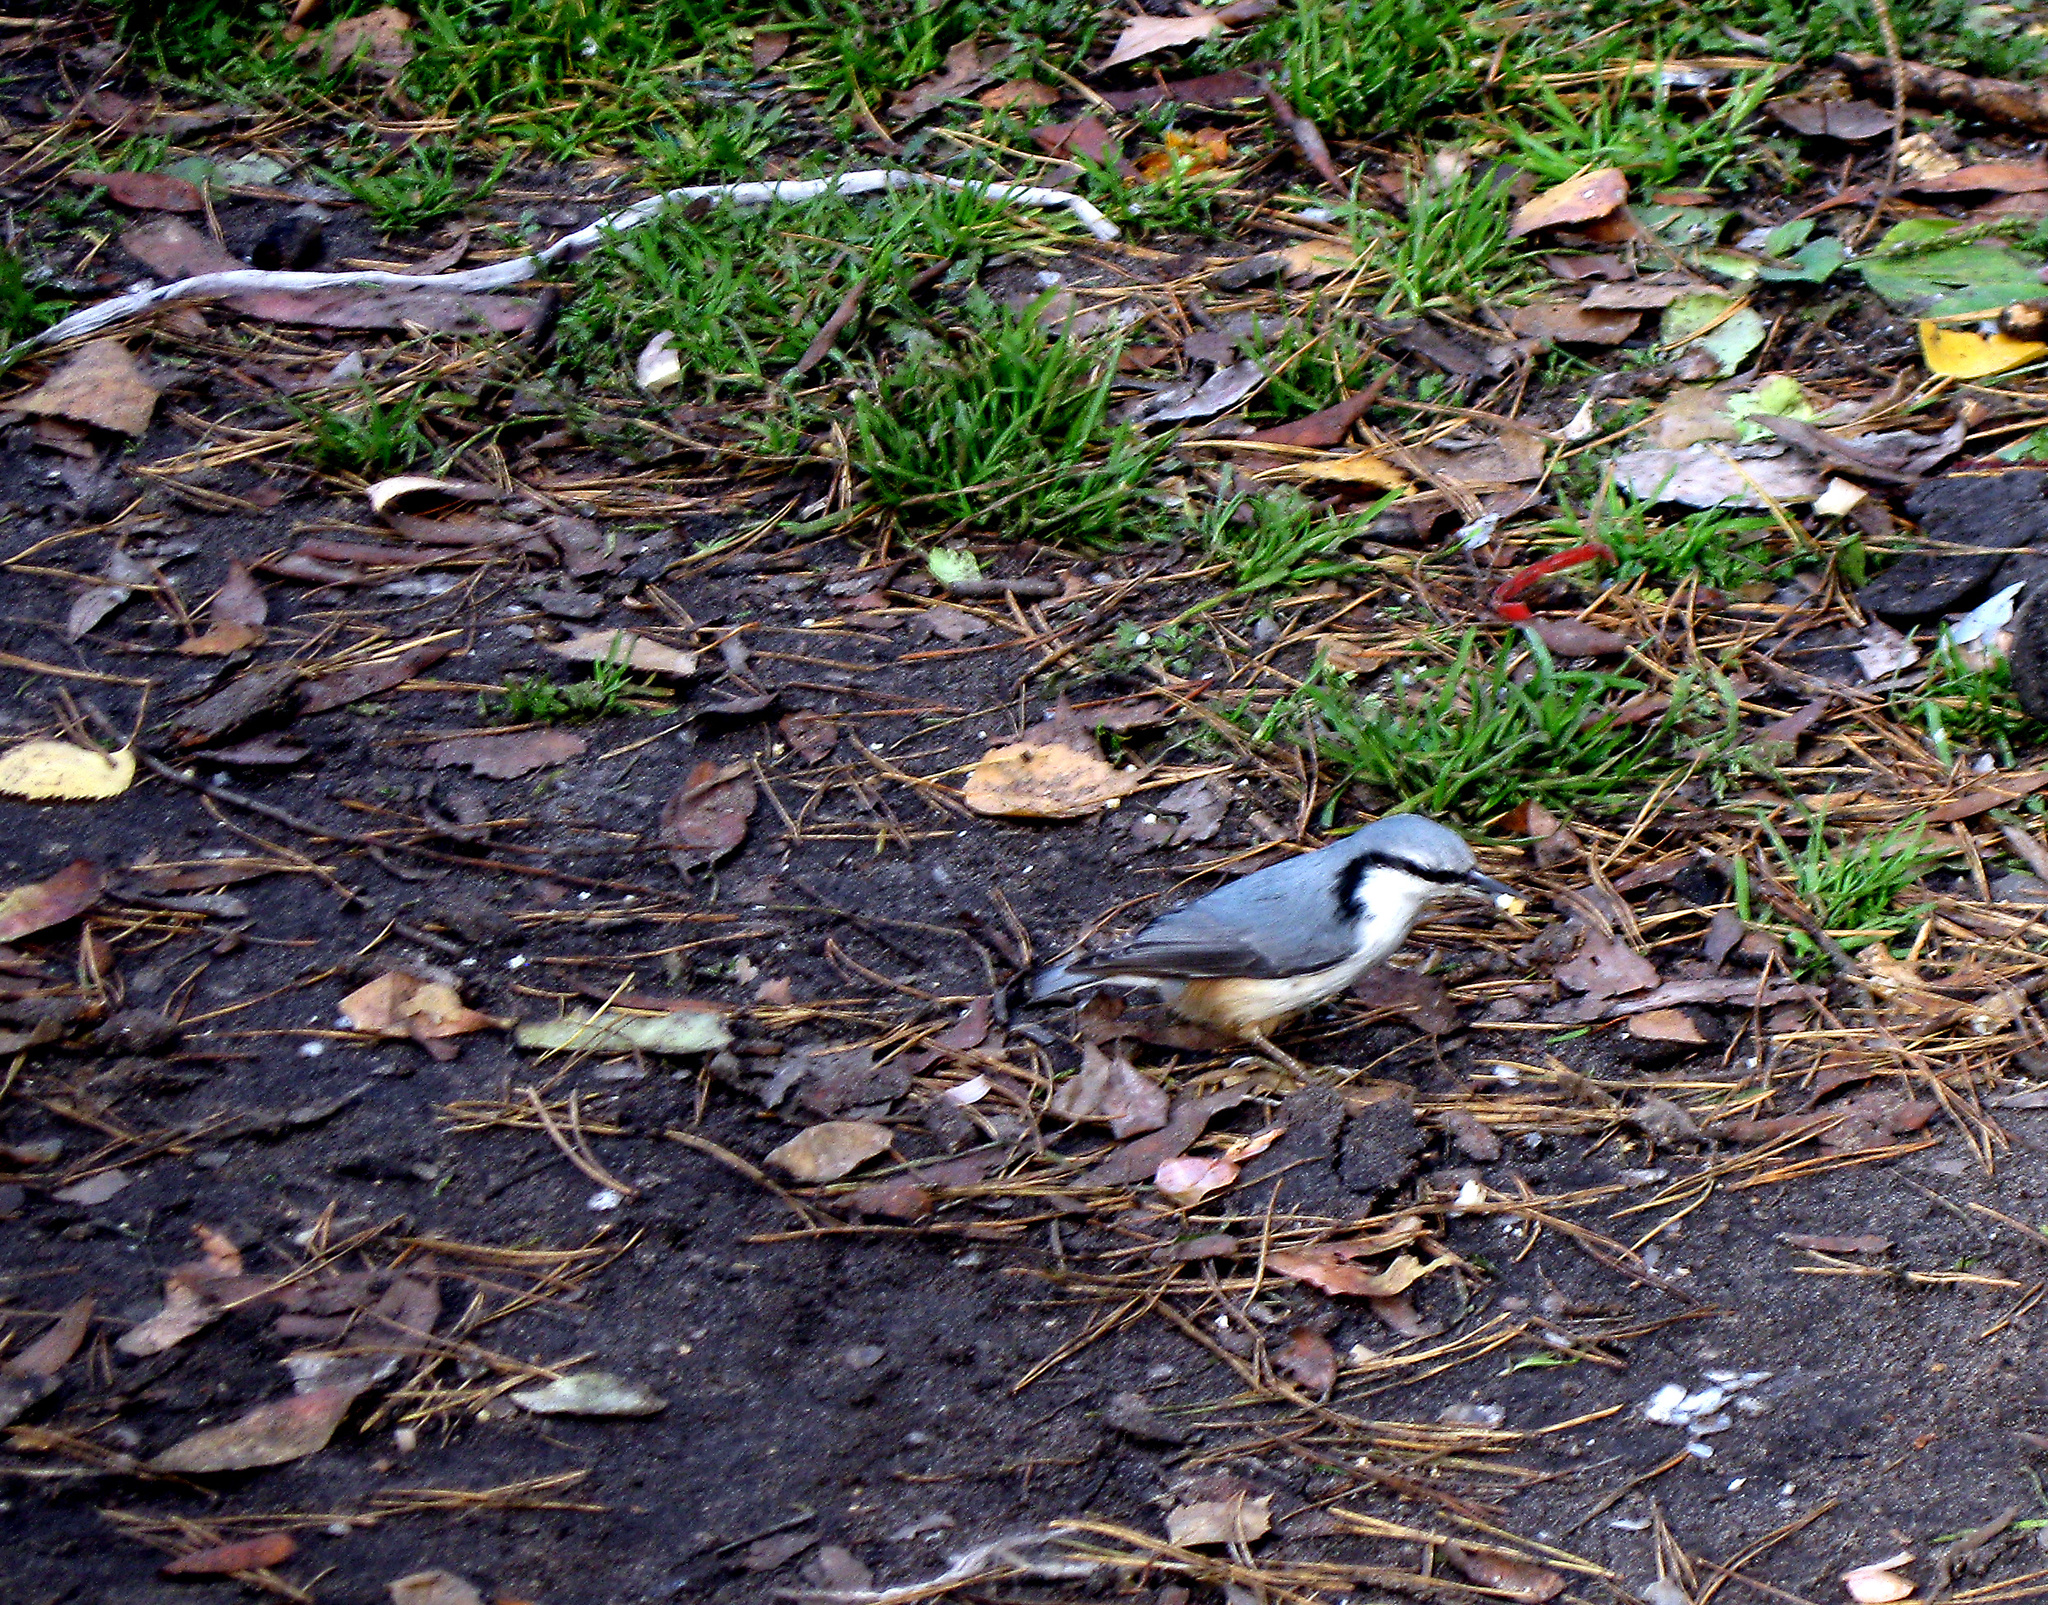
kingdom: Animalia
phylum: Chordata
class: Aves
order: Passeriformes
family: Sittidae
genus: Sitta
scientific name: Sitta europaea
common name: Eurasian nuthatch
